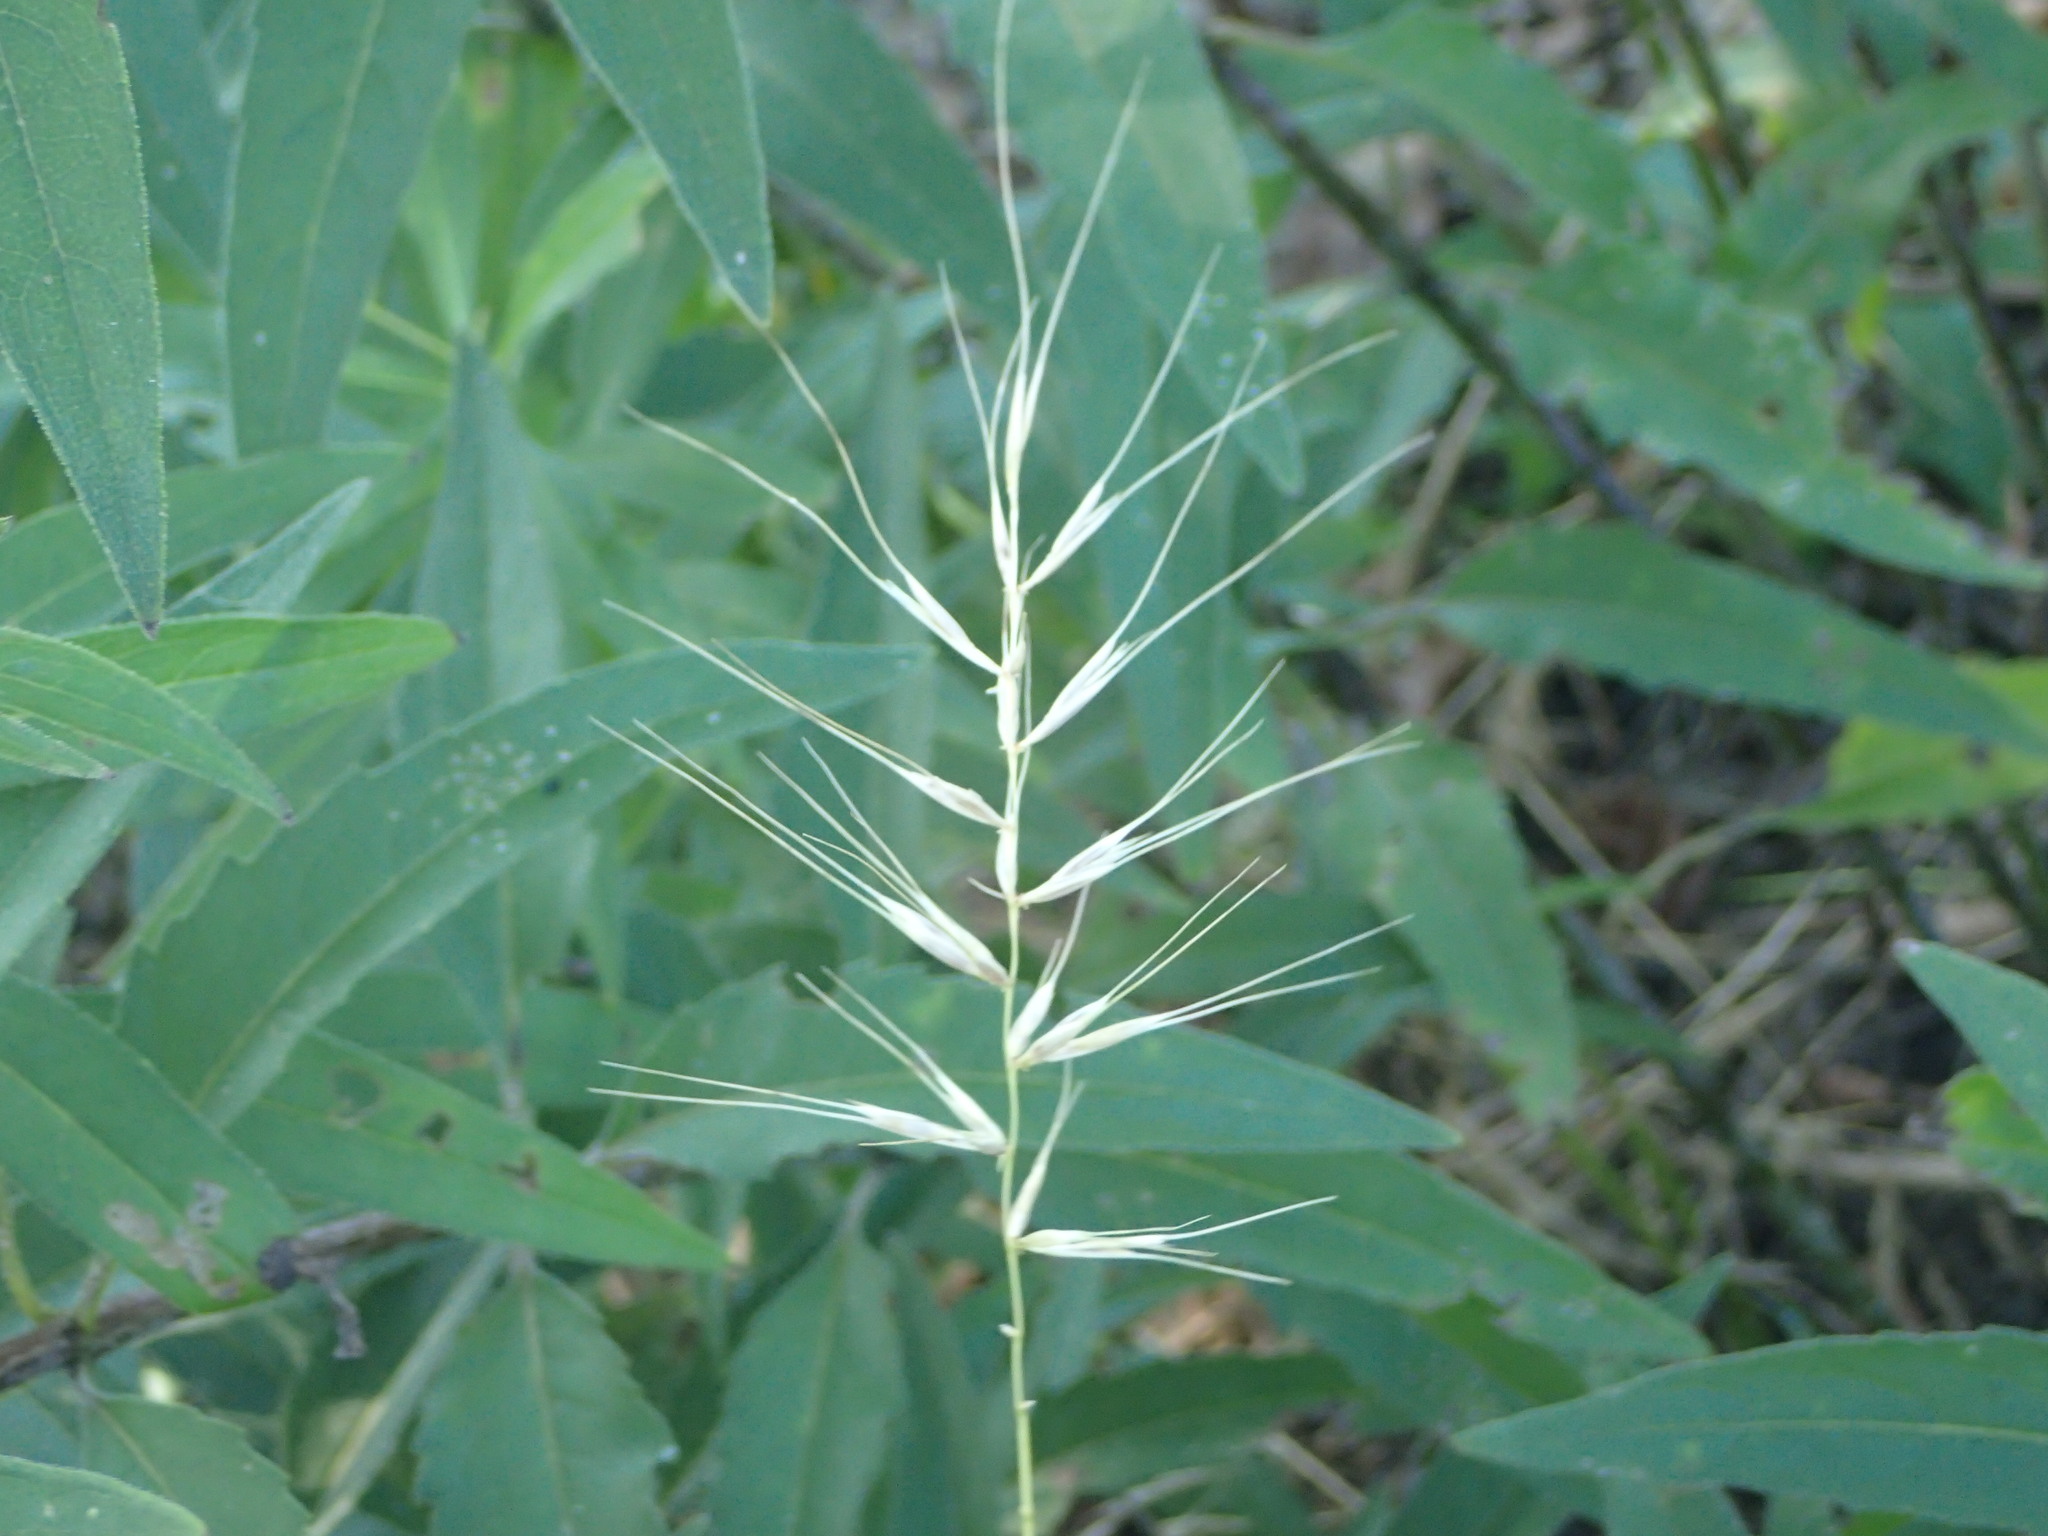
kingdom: Plantae
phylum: Tracheophyta
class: Liliopsida
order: Poales
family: Poaceae
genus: Elymus
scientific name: Elymus hystrix
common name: Bottlebrush grass
